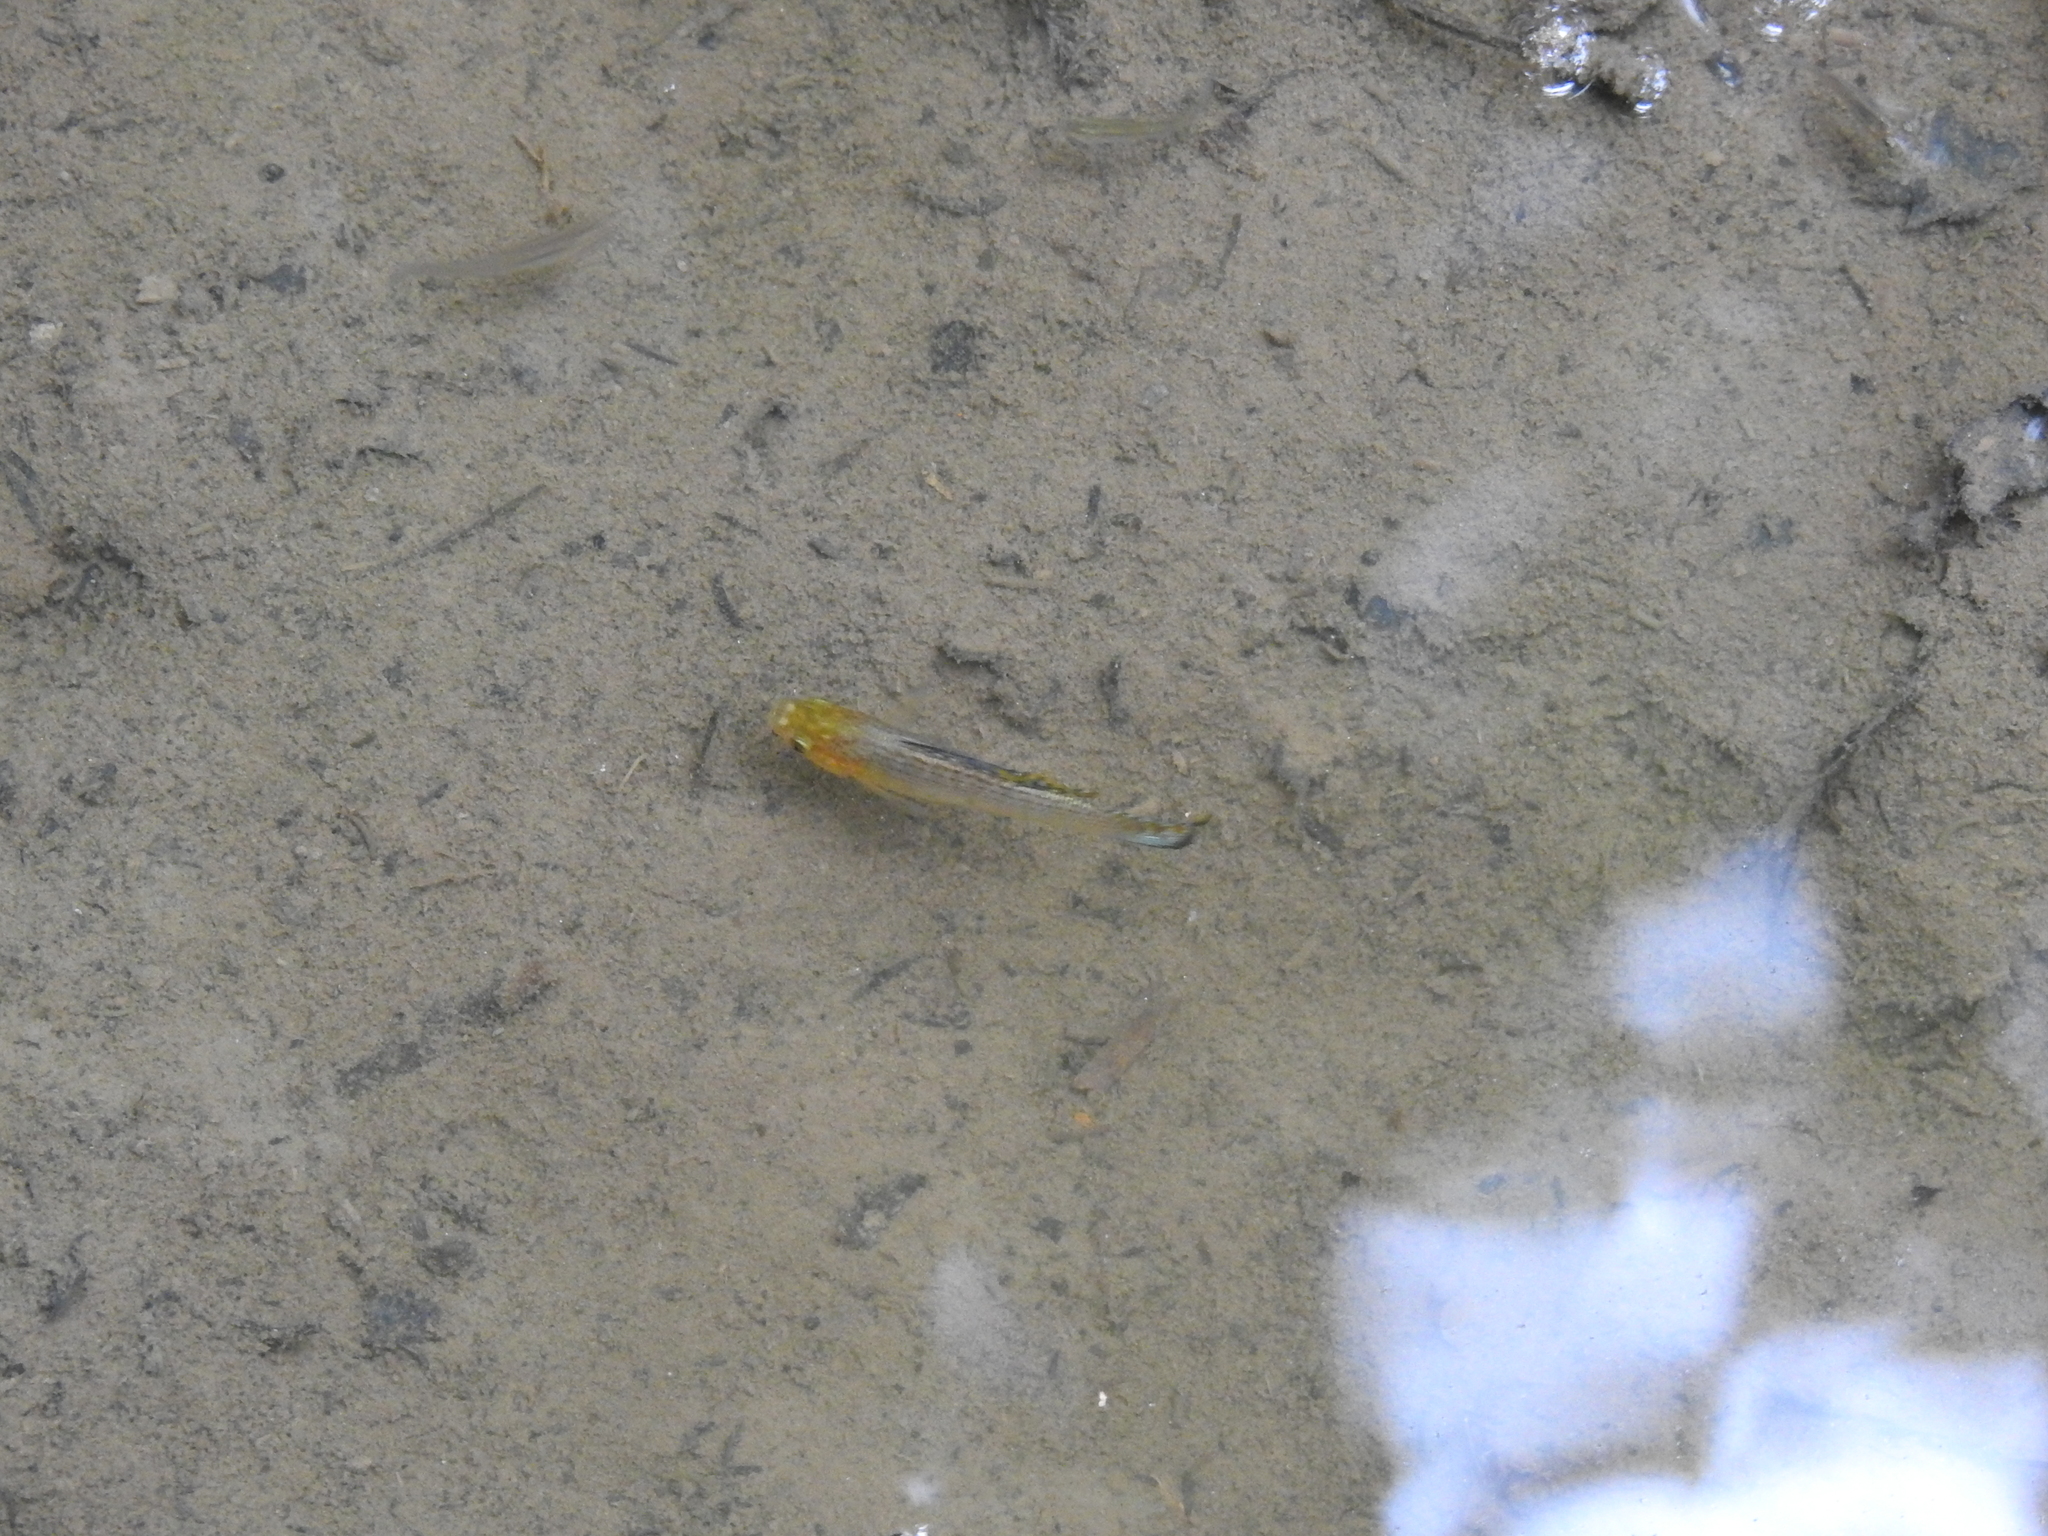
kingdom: Animalia
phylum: Chordata
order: Cyprinodontiformes
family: Poeciliidae
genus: Poecilia
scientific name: Poecilia latipinna
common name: Sailfin molly
